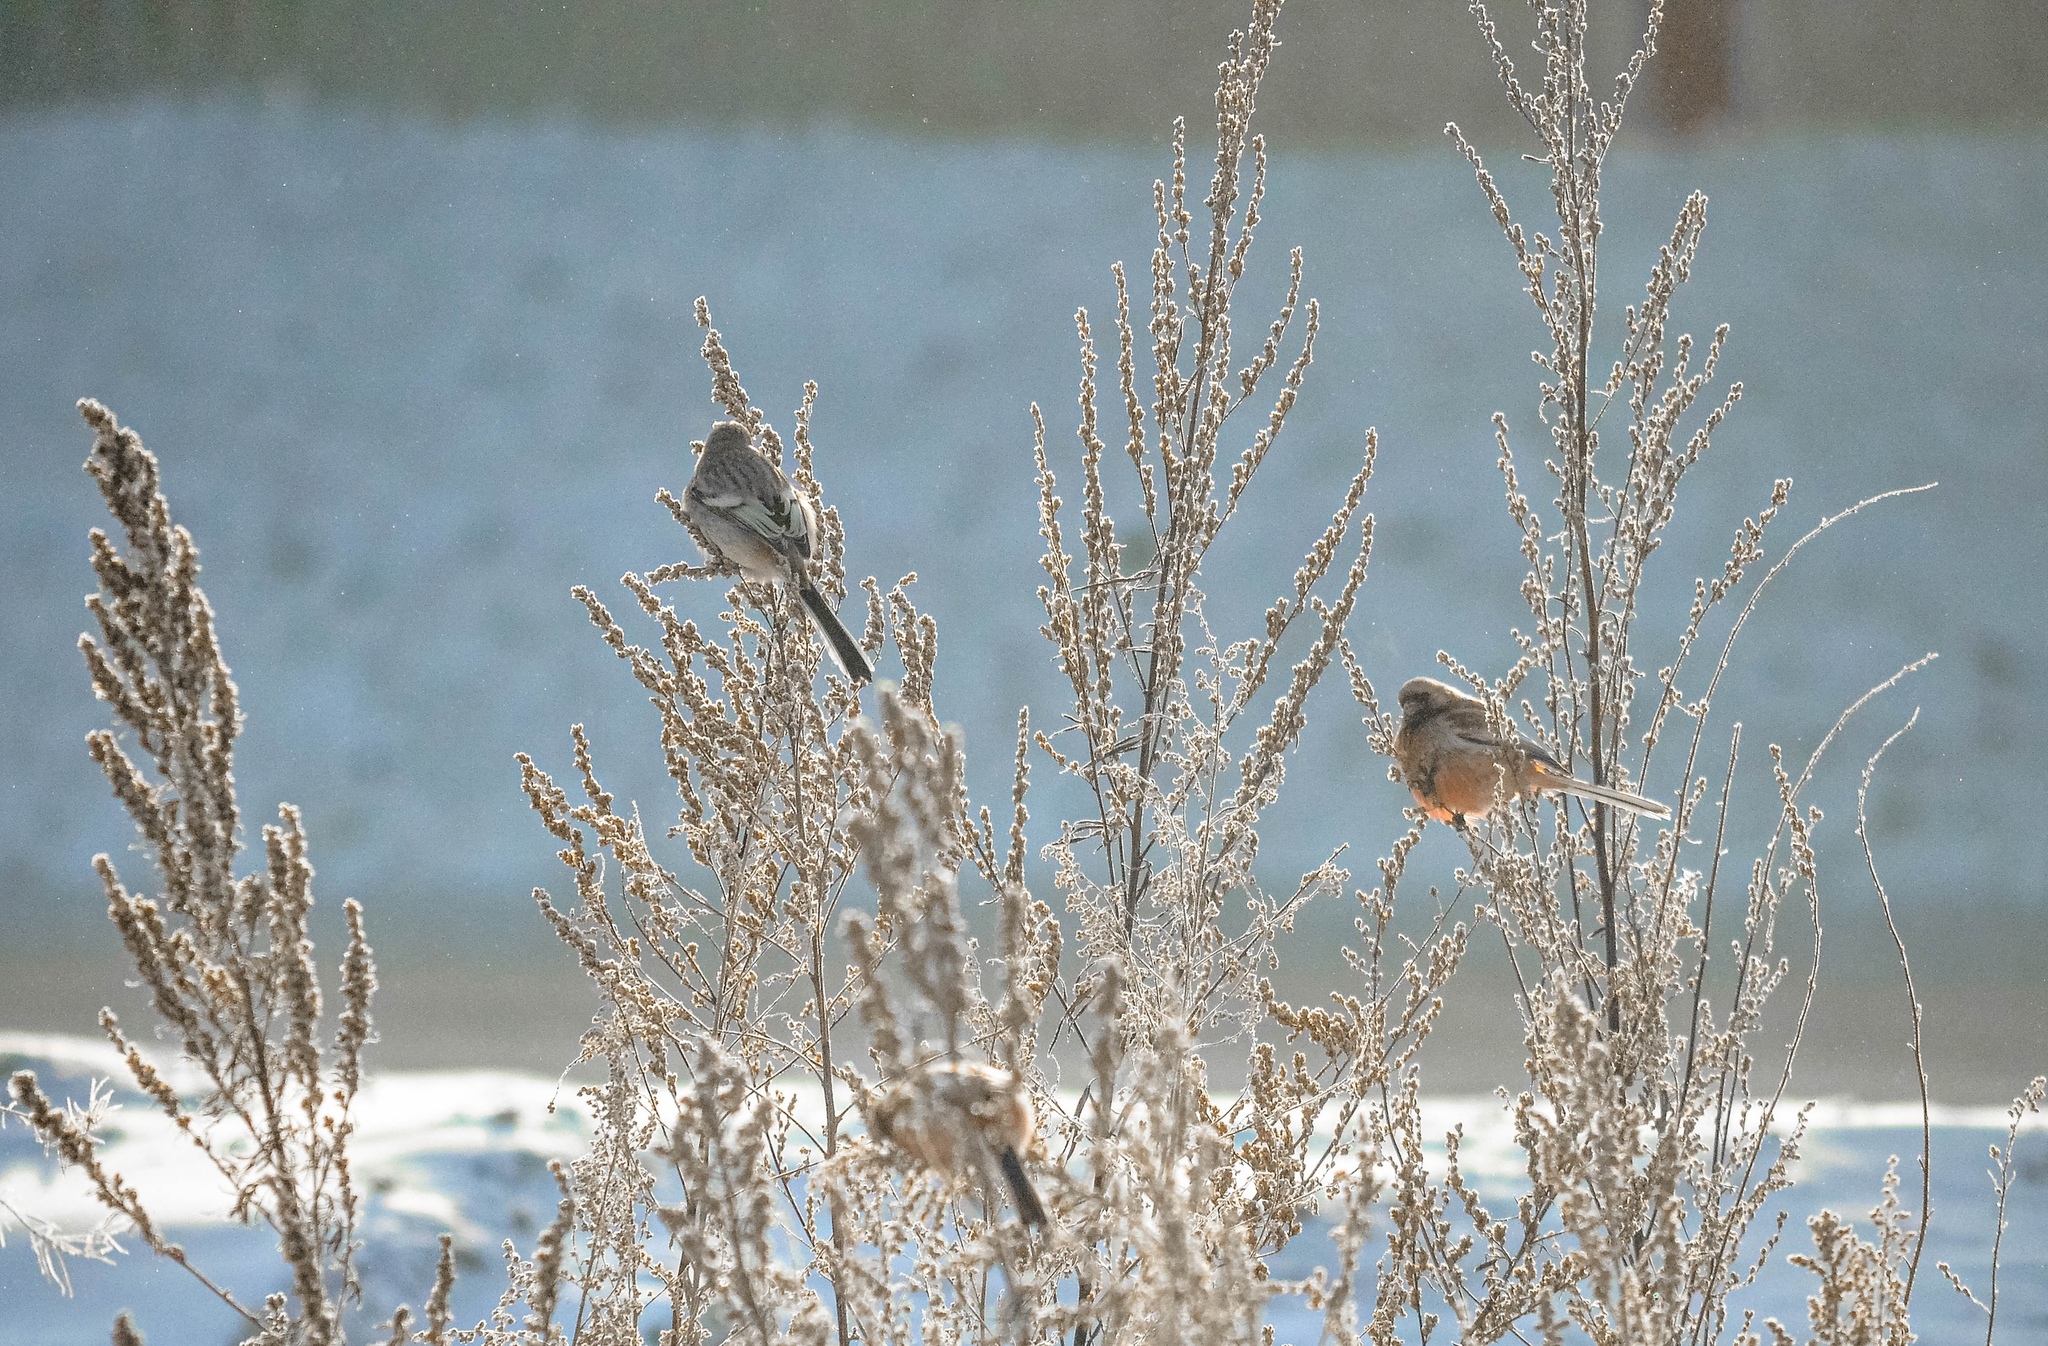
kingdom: Animalia
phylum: Chordata
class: Aves
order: Passeriformes
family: Fringillidae
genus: Carpodacus
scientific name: Carpodacus sibiricus
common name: Long-tailed rosefinch
